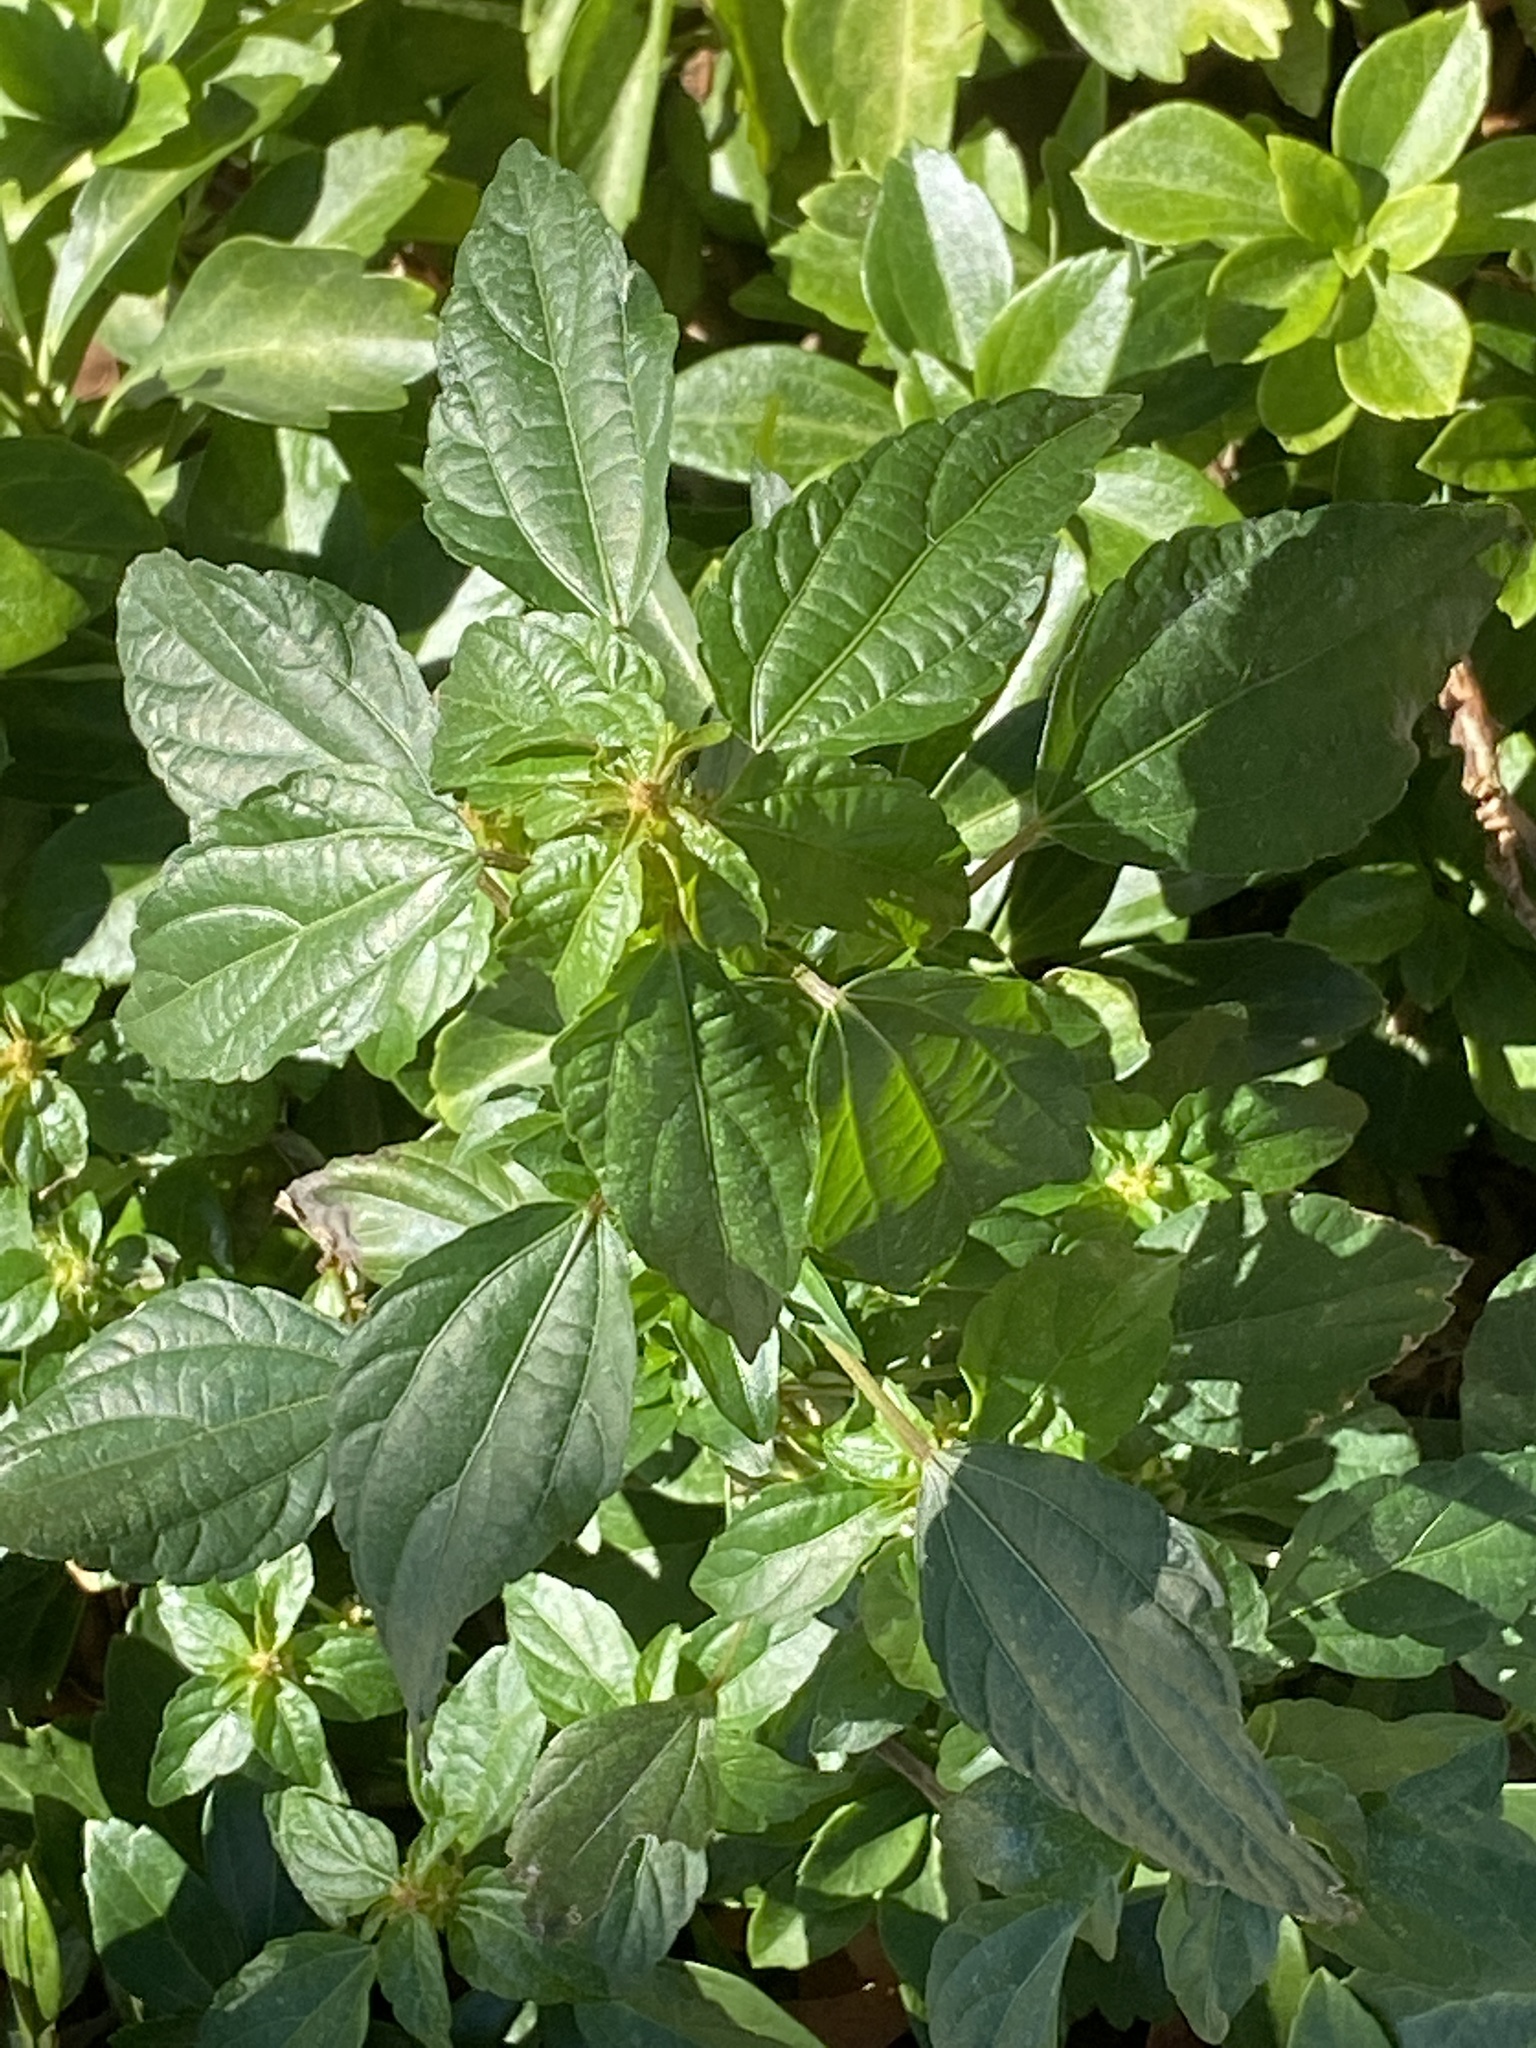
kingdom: Plantae
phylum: Tracheophyta
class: Magnoliopsida
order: Malpighiales
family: Euphorbiaceae
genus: Acalypha
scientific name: Acalypha rhomboidea
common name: Rhombic copperleaf
